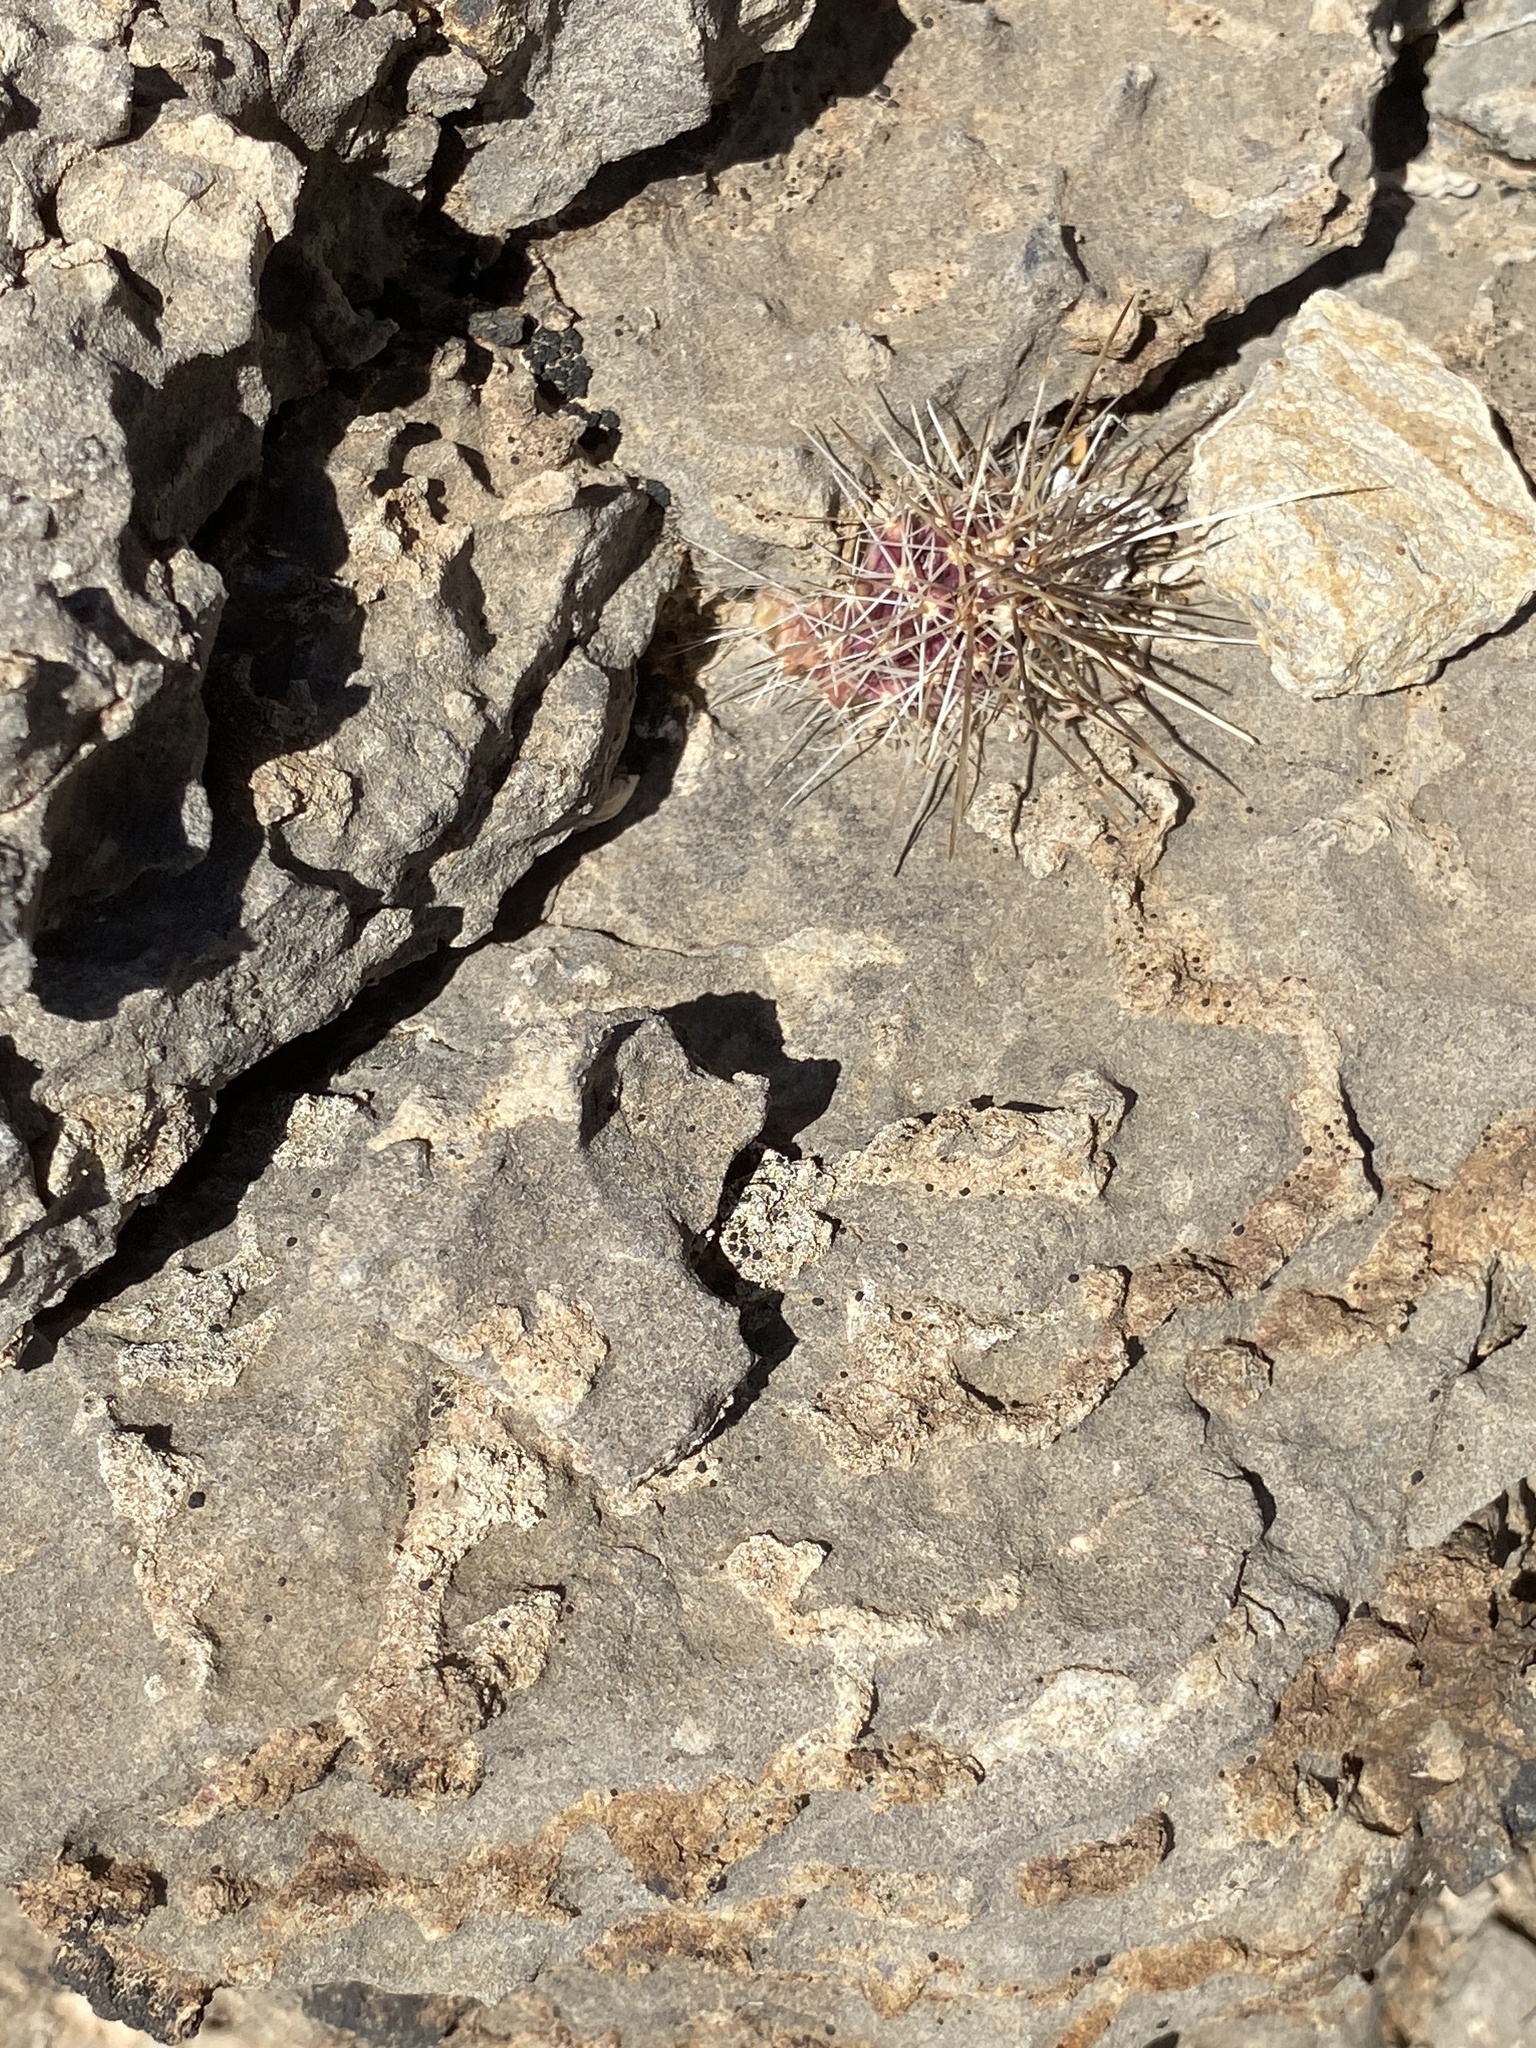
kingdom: Plantae
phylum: Tracheophyta
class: Magnoliopsida
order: Caryophyllales
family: Cactaceae
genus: Echinocereus
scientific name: Echinocereus stramineus
